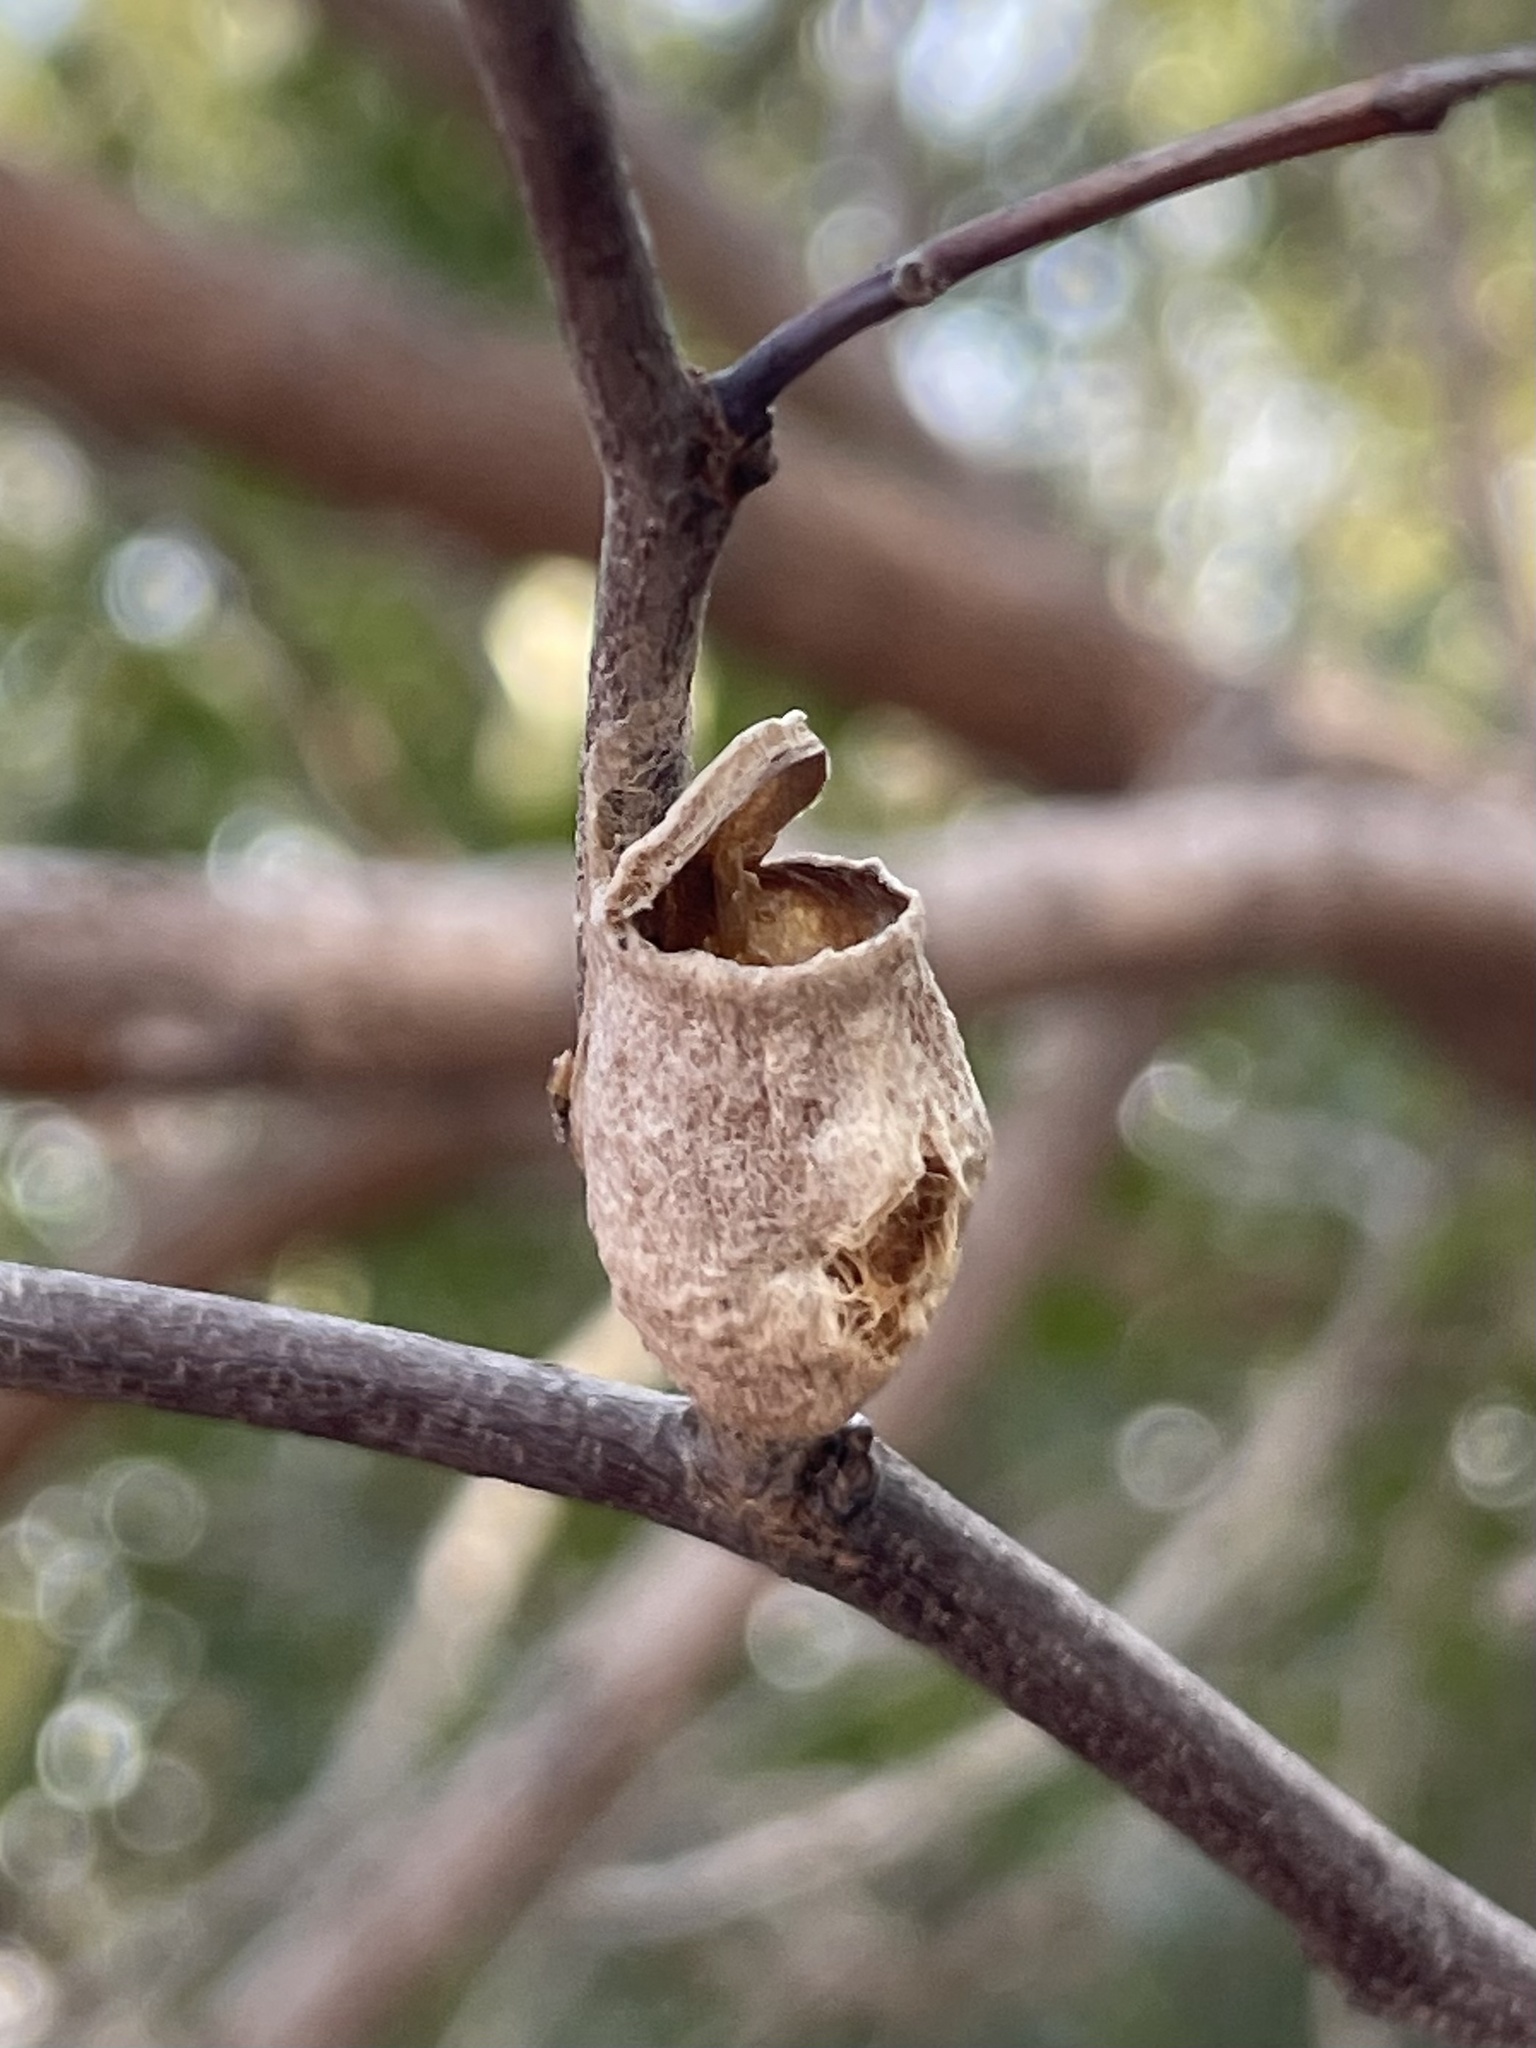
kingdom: Animalia
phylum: Arthropoda
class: Insecta
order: Lepidoptera
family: Megalopygidae
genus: Megalopyge
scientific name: Megalopyge opercularis
